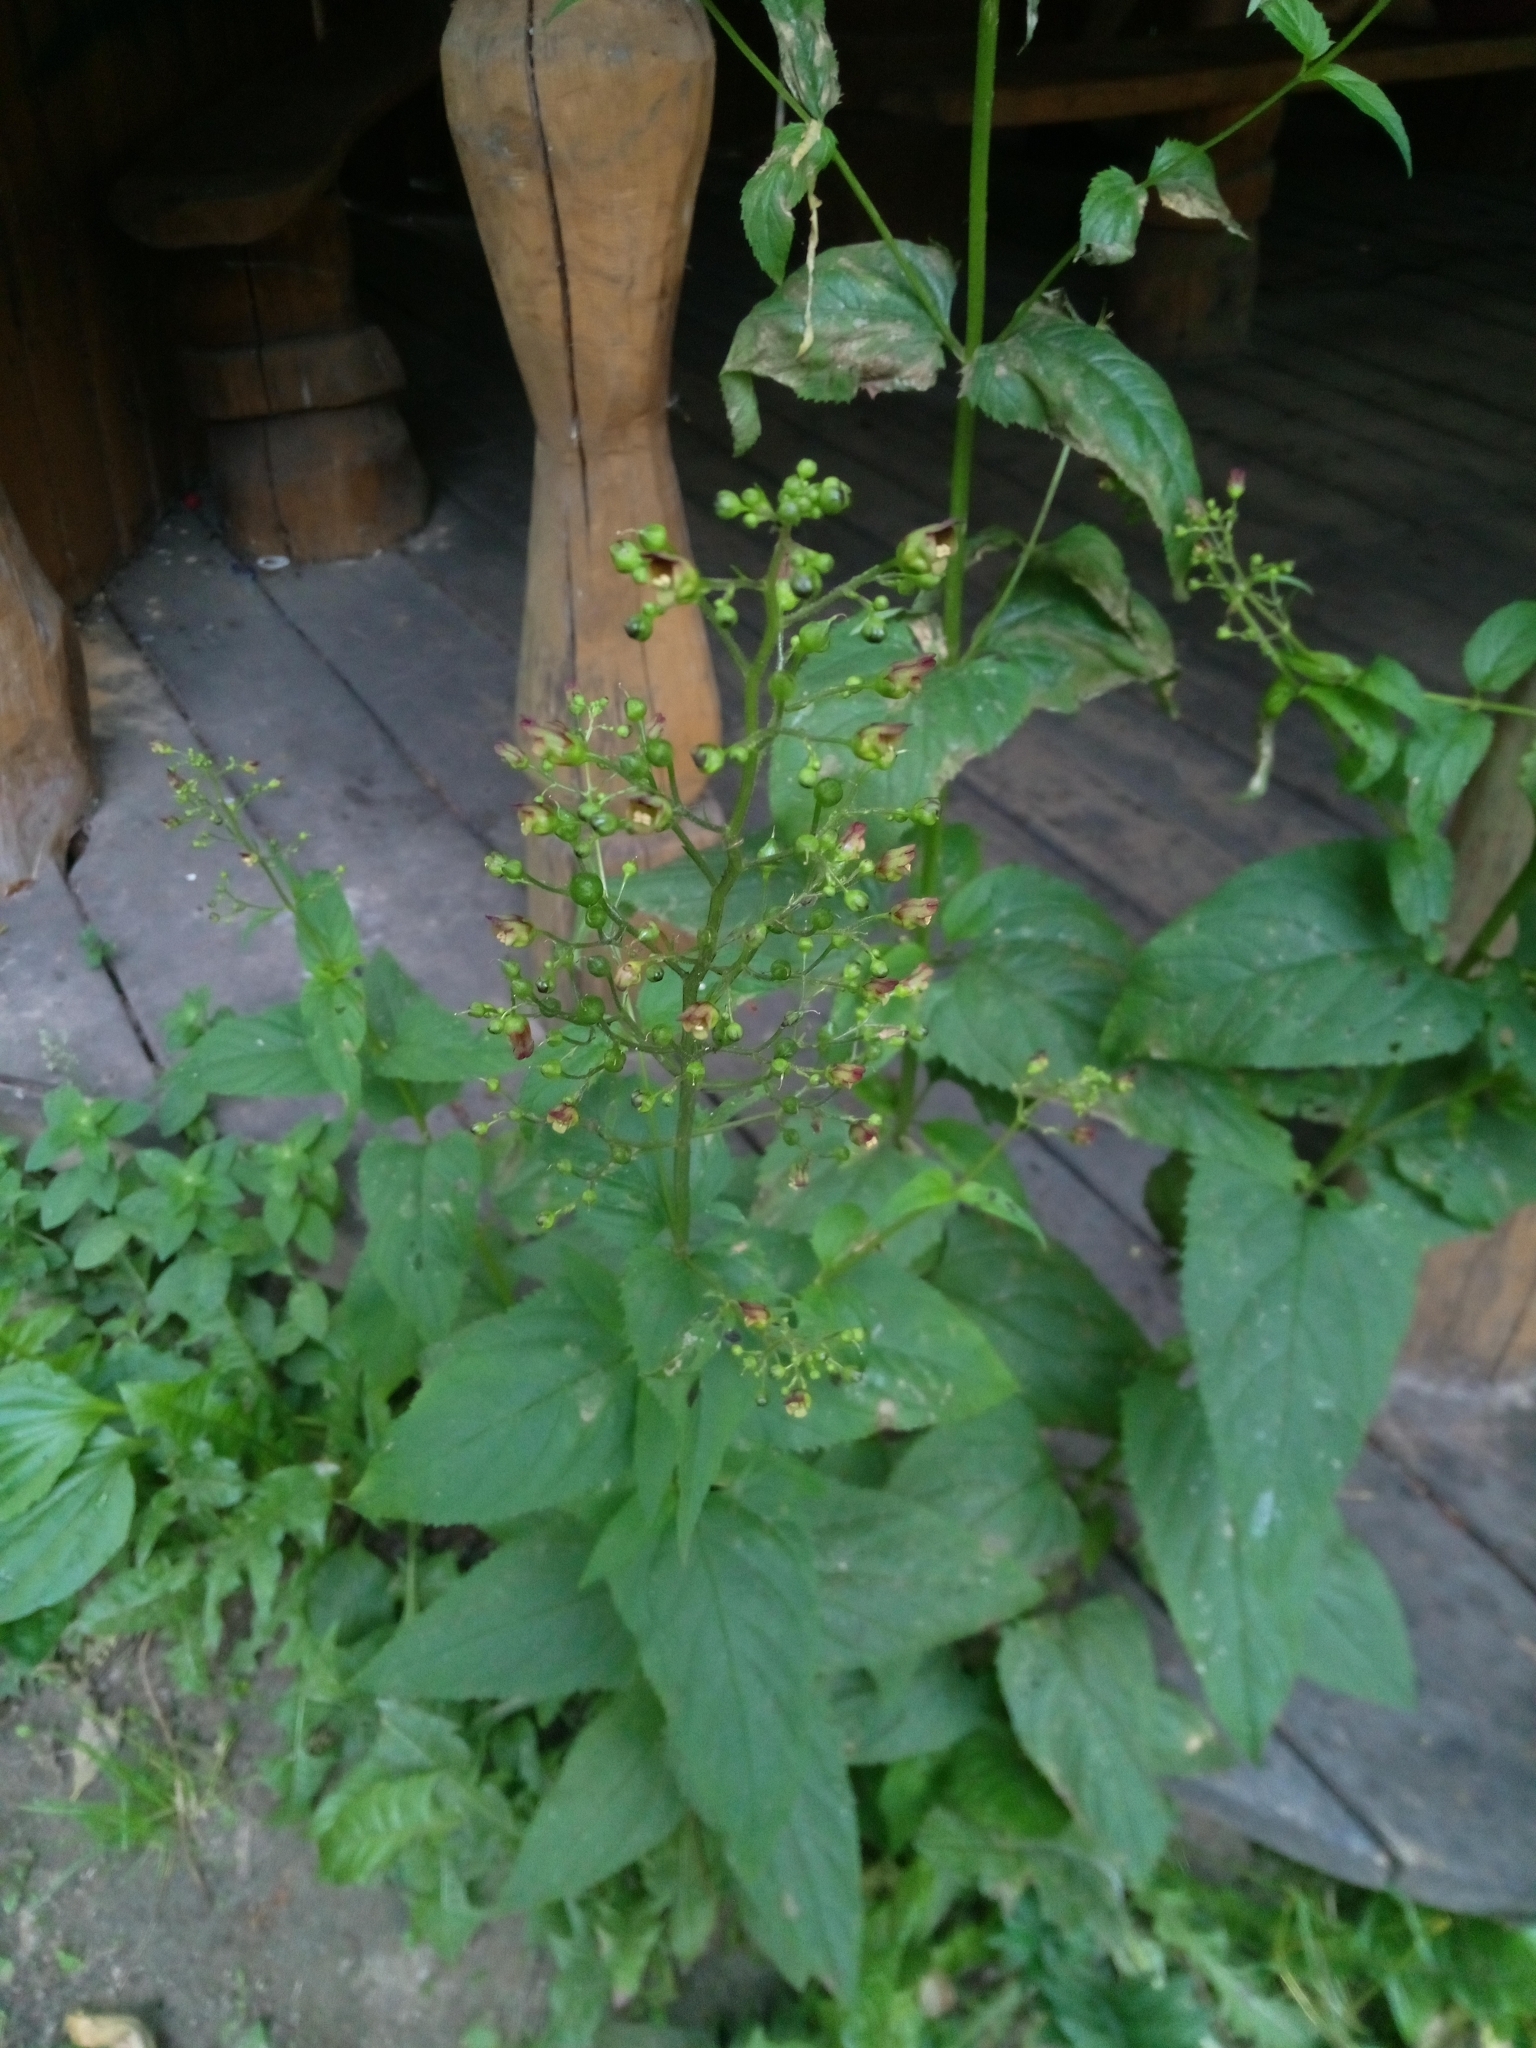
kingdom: Plantae
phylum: Tracheophyta
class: Magnoliopsida
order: Lamiales
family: Scrophulariaceae
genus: Scrophularia
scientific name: Scrophularia nodosa
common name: Common figwort
